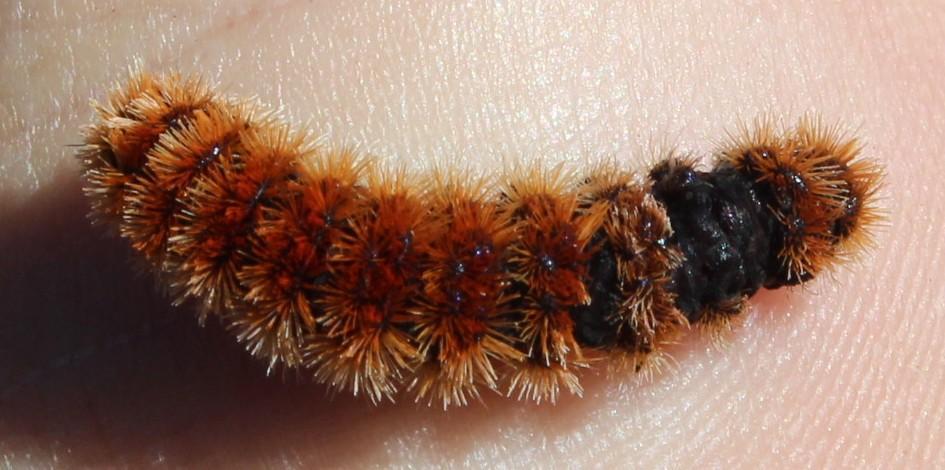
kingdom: Animalia
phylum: Arthropoda
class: Insecta
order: Lepidoptera
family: Erebidae
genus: Amata
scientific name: Amata cerbera
